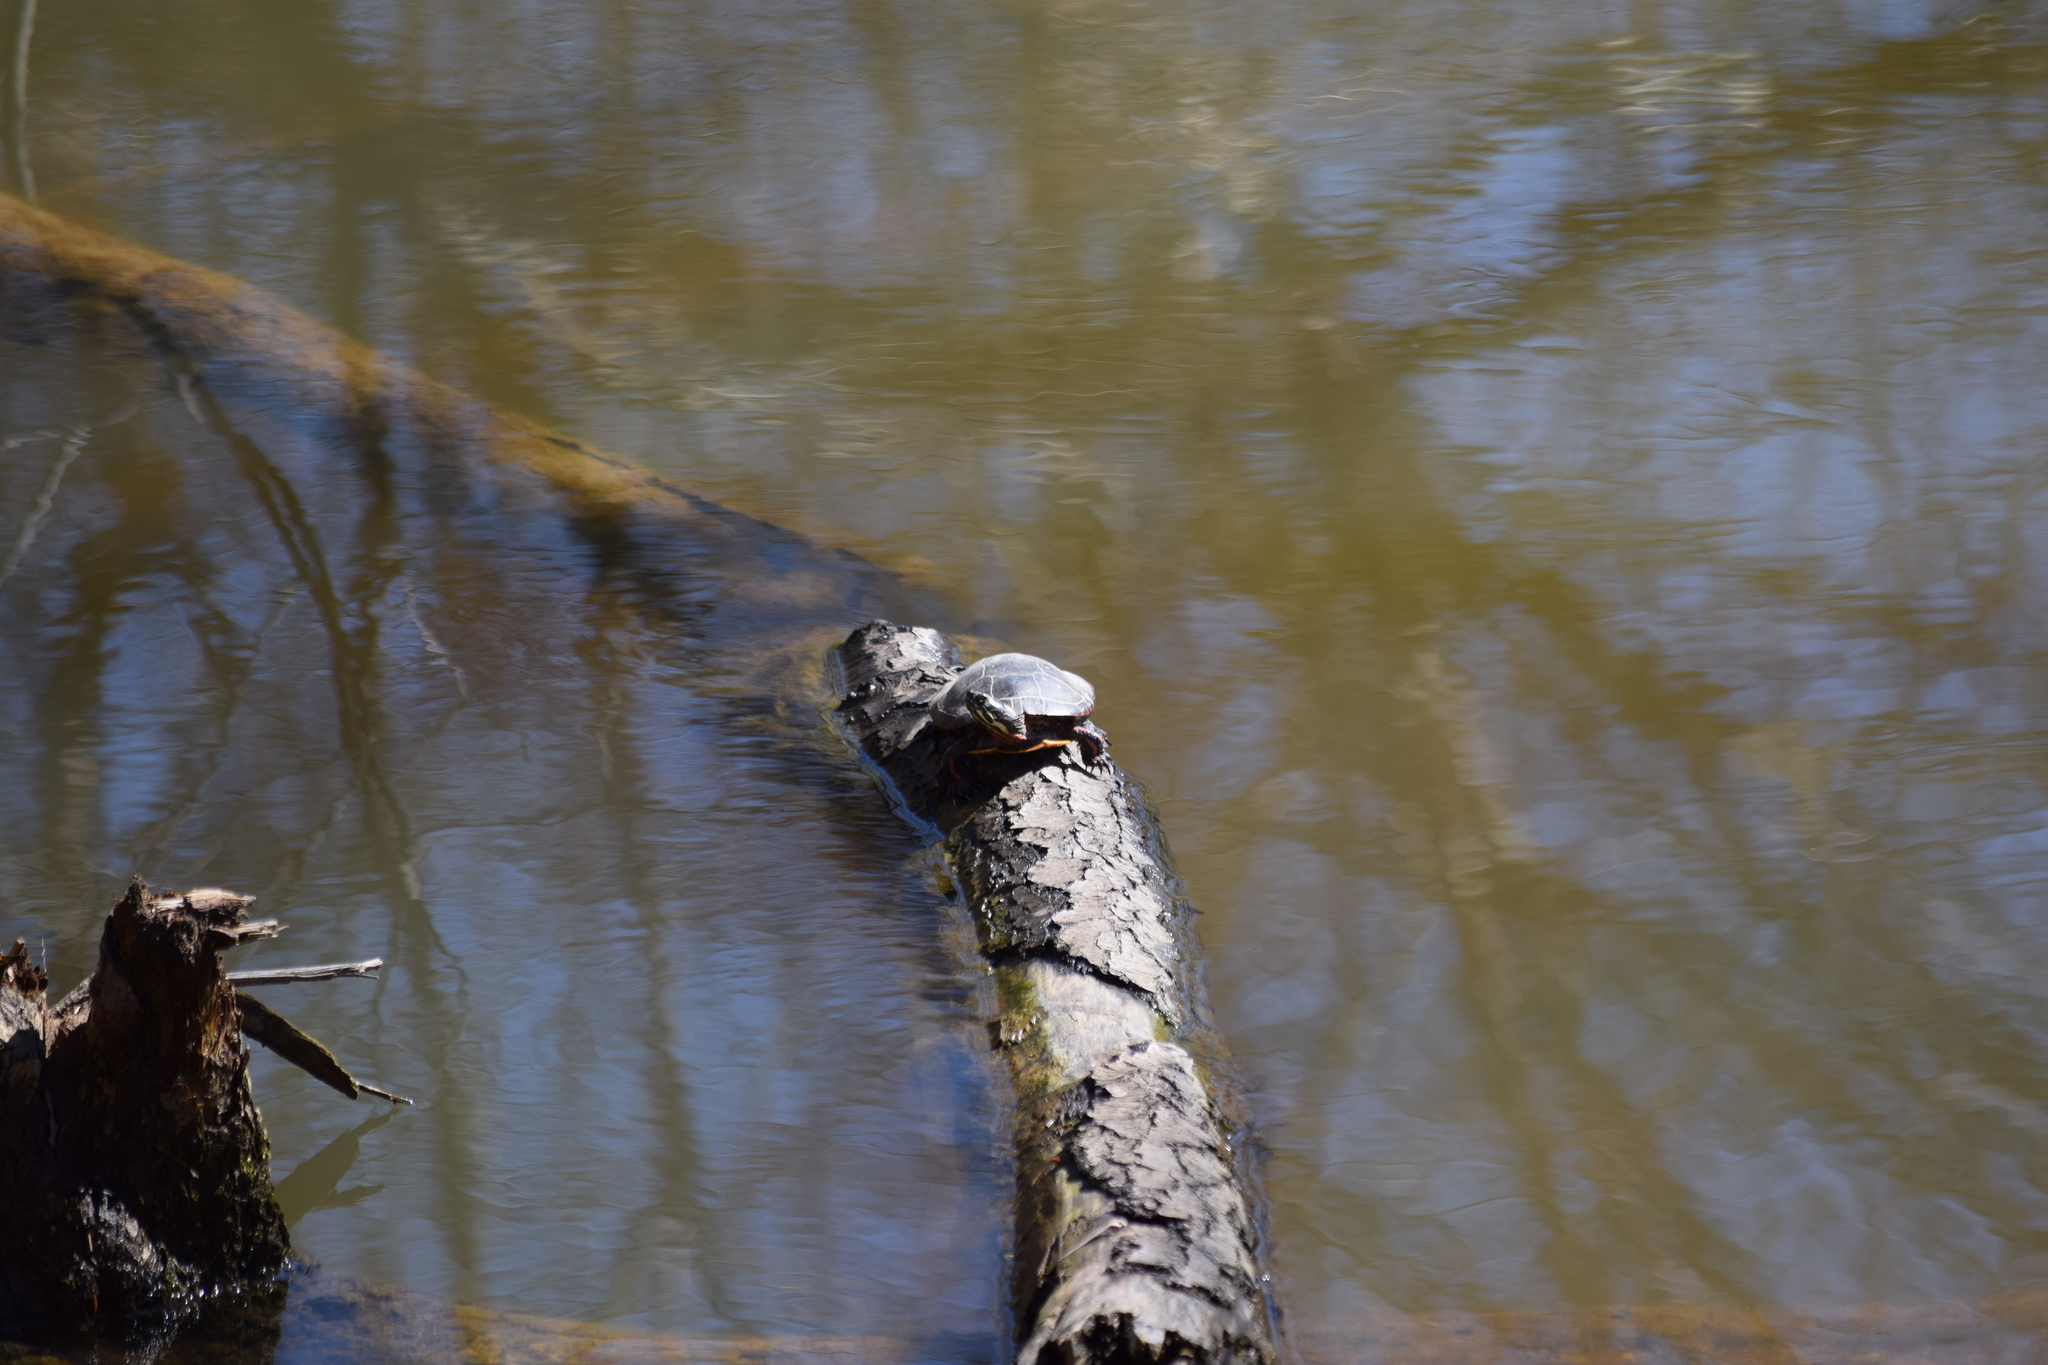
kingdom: Animalia
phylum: Chordata
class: Testudines
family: Emydidae
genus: Chrysemys
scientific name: Chrysemys picta
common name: Painted turtle
